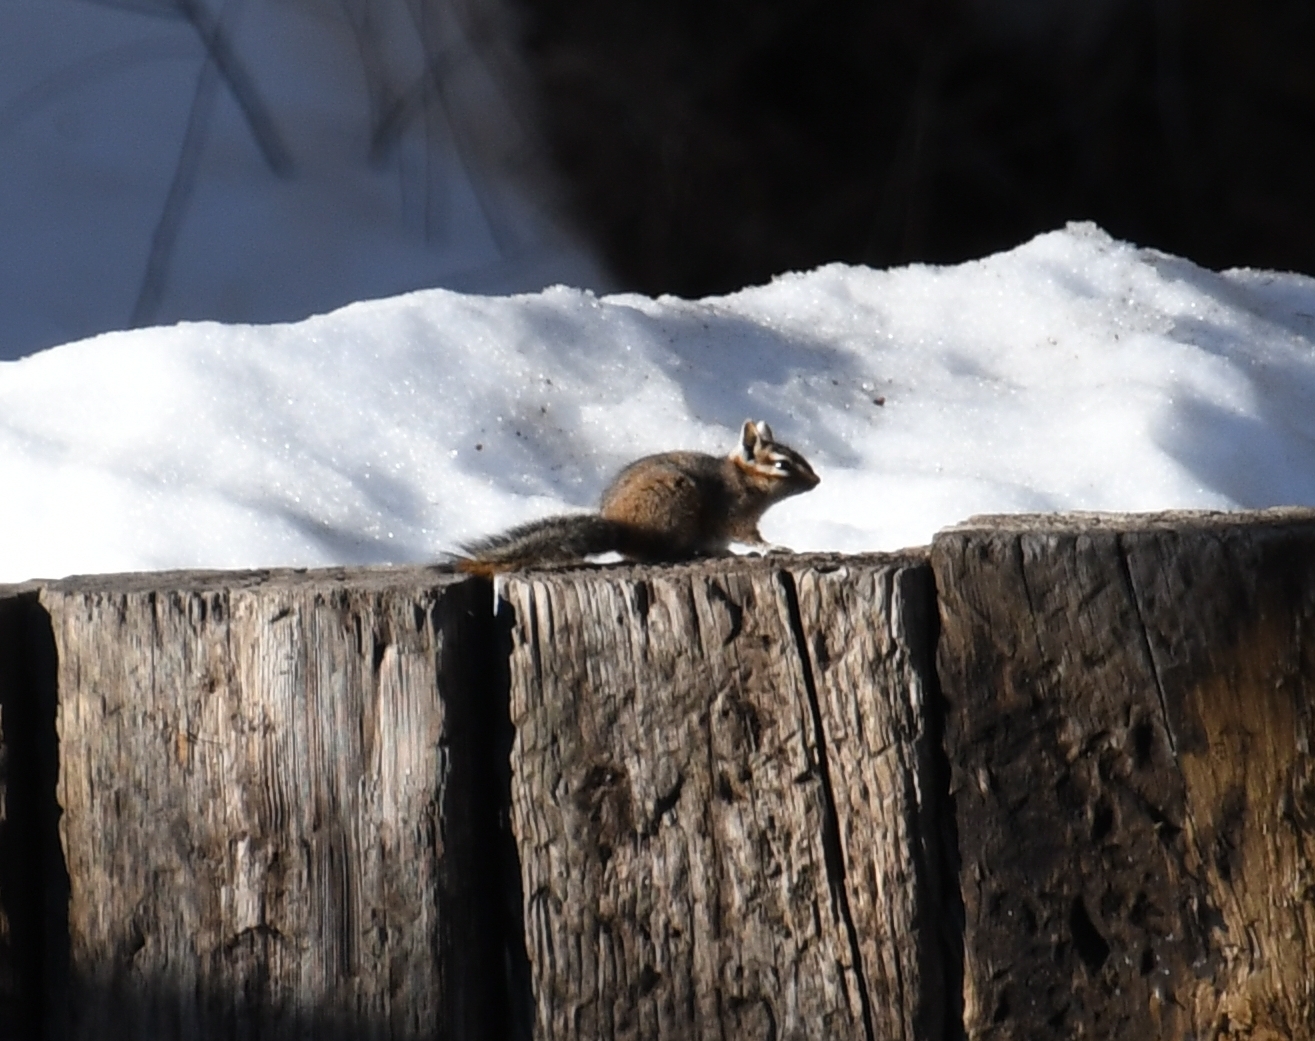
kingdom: Animalia
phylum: Chordata
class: Mammalia
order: Rodentia
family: Sciuridae
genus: Tamias
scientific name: Tamias dorsalis
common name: Cliff chipmunk
